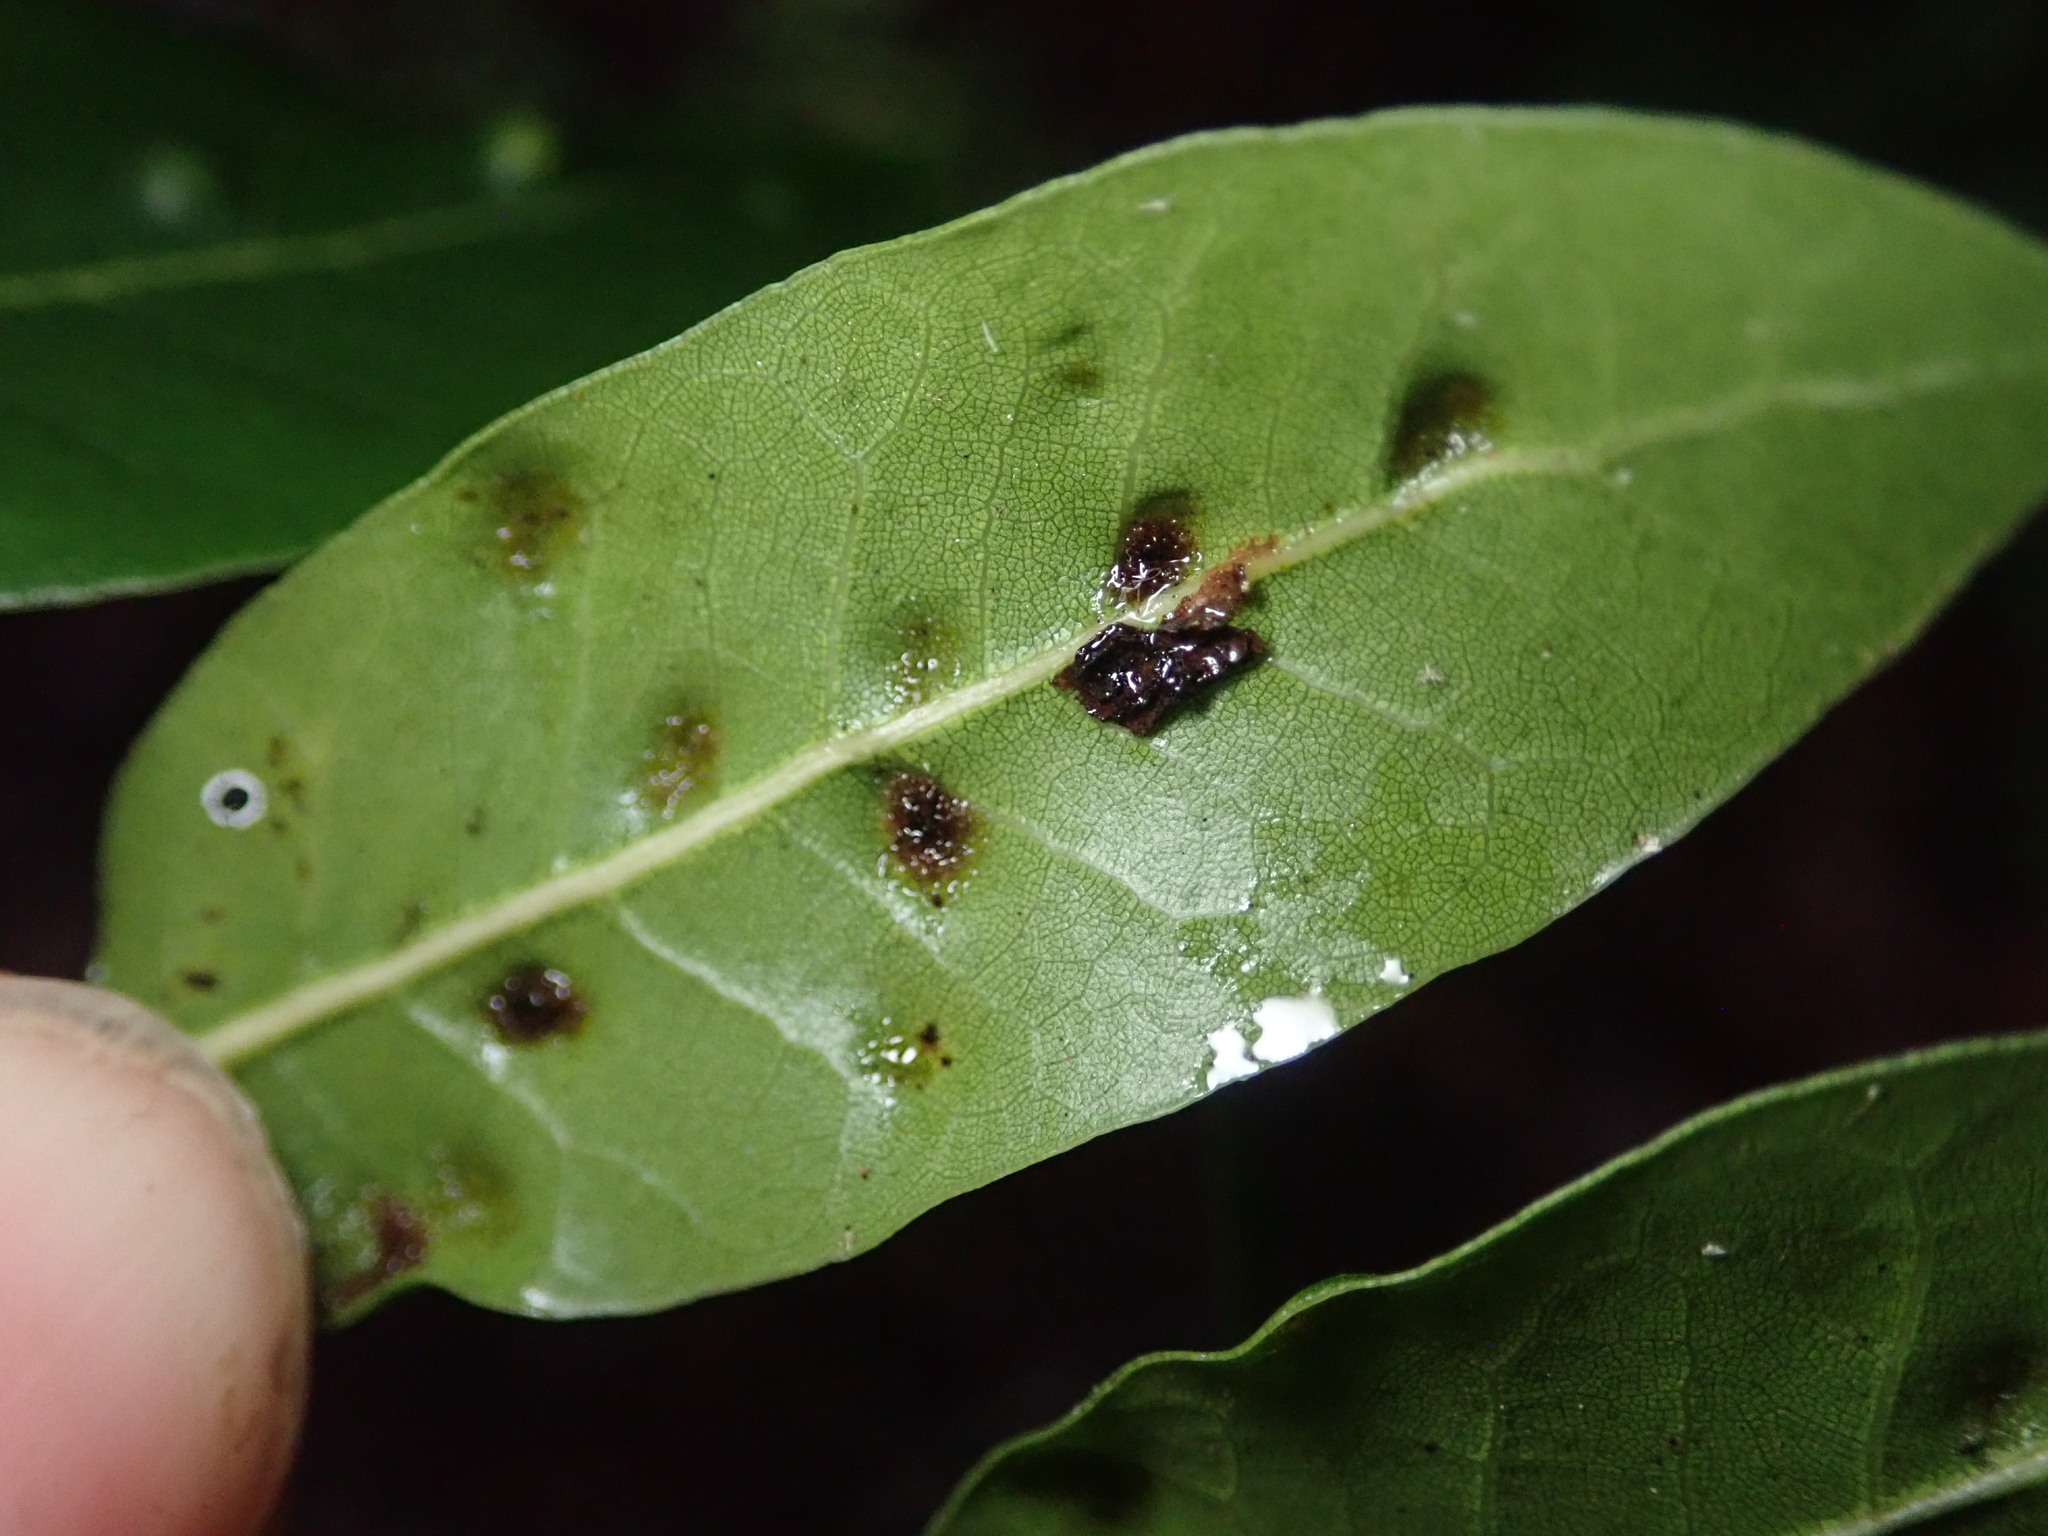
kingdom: Animalia
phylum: Arthropoda
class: Arachnida
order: Trombidiformes
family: Eriophyidae
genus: Aceria
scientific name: Aceria
